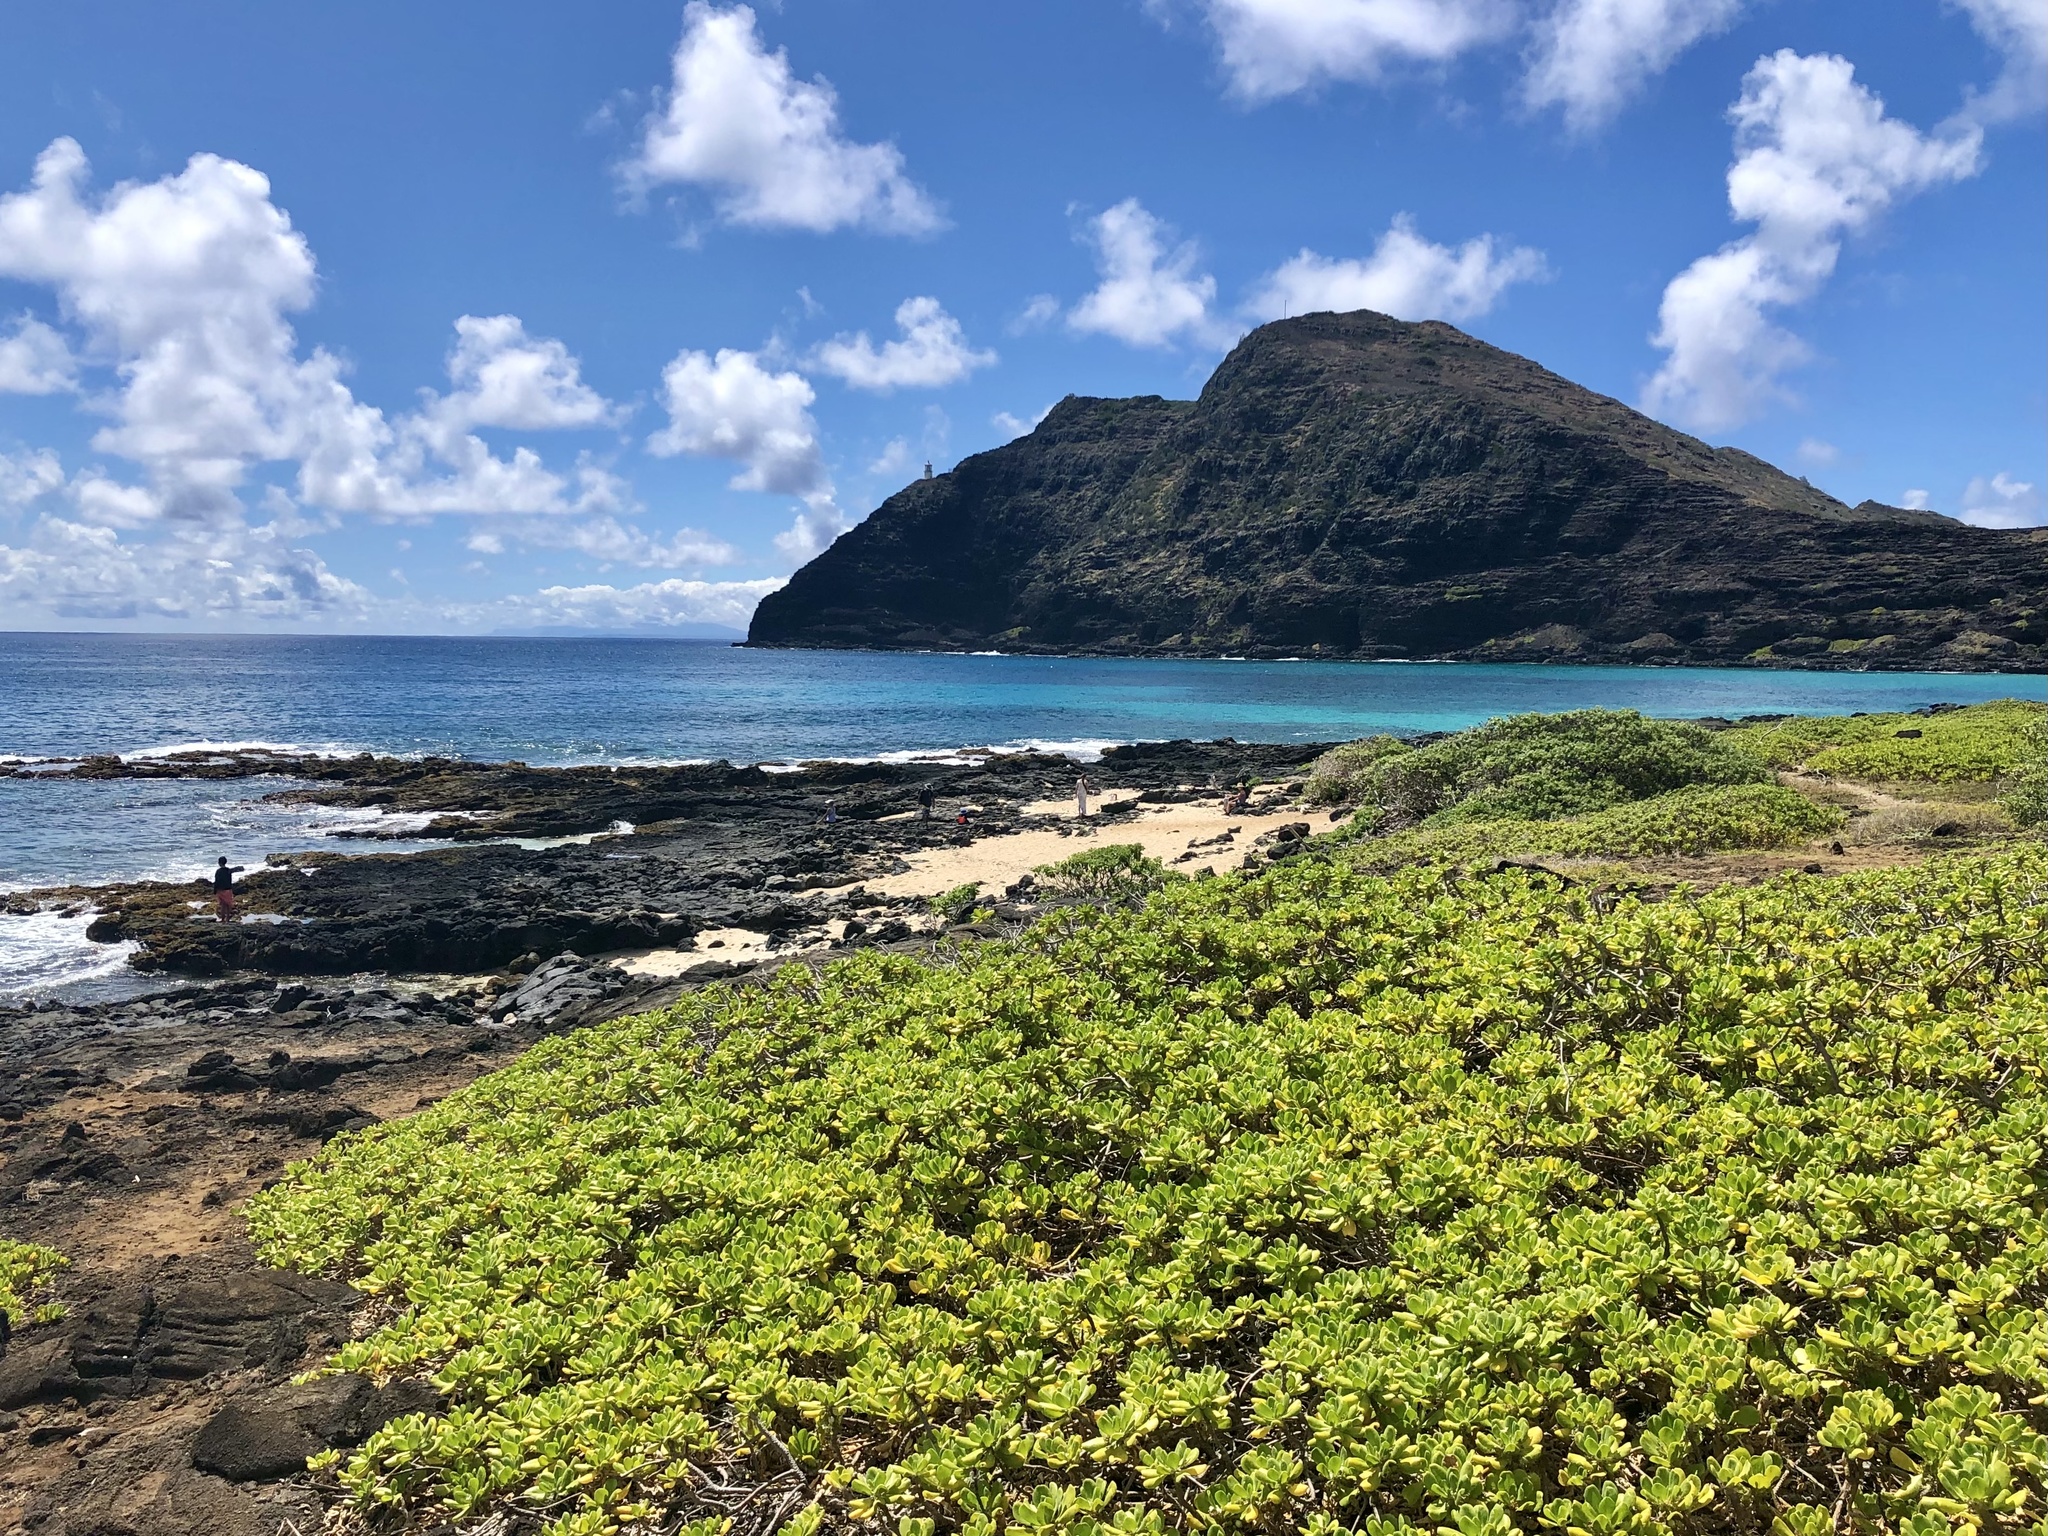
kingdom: Plantae
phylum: Tracheophyta
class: Magnoliopsida
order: Asterales
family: Goodeniaceae
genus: Scaevola
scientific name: Scaevola taccada
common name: Sea lettucetree
